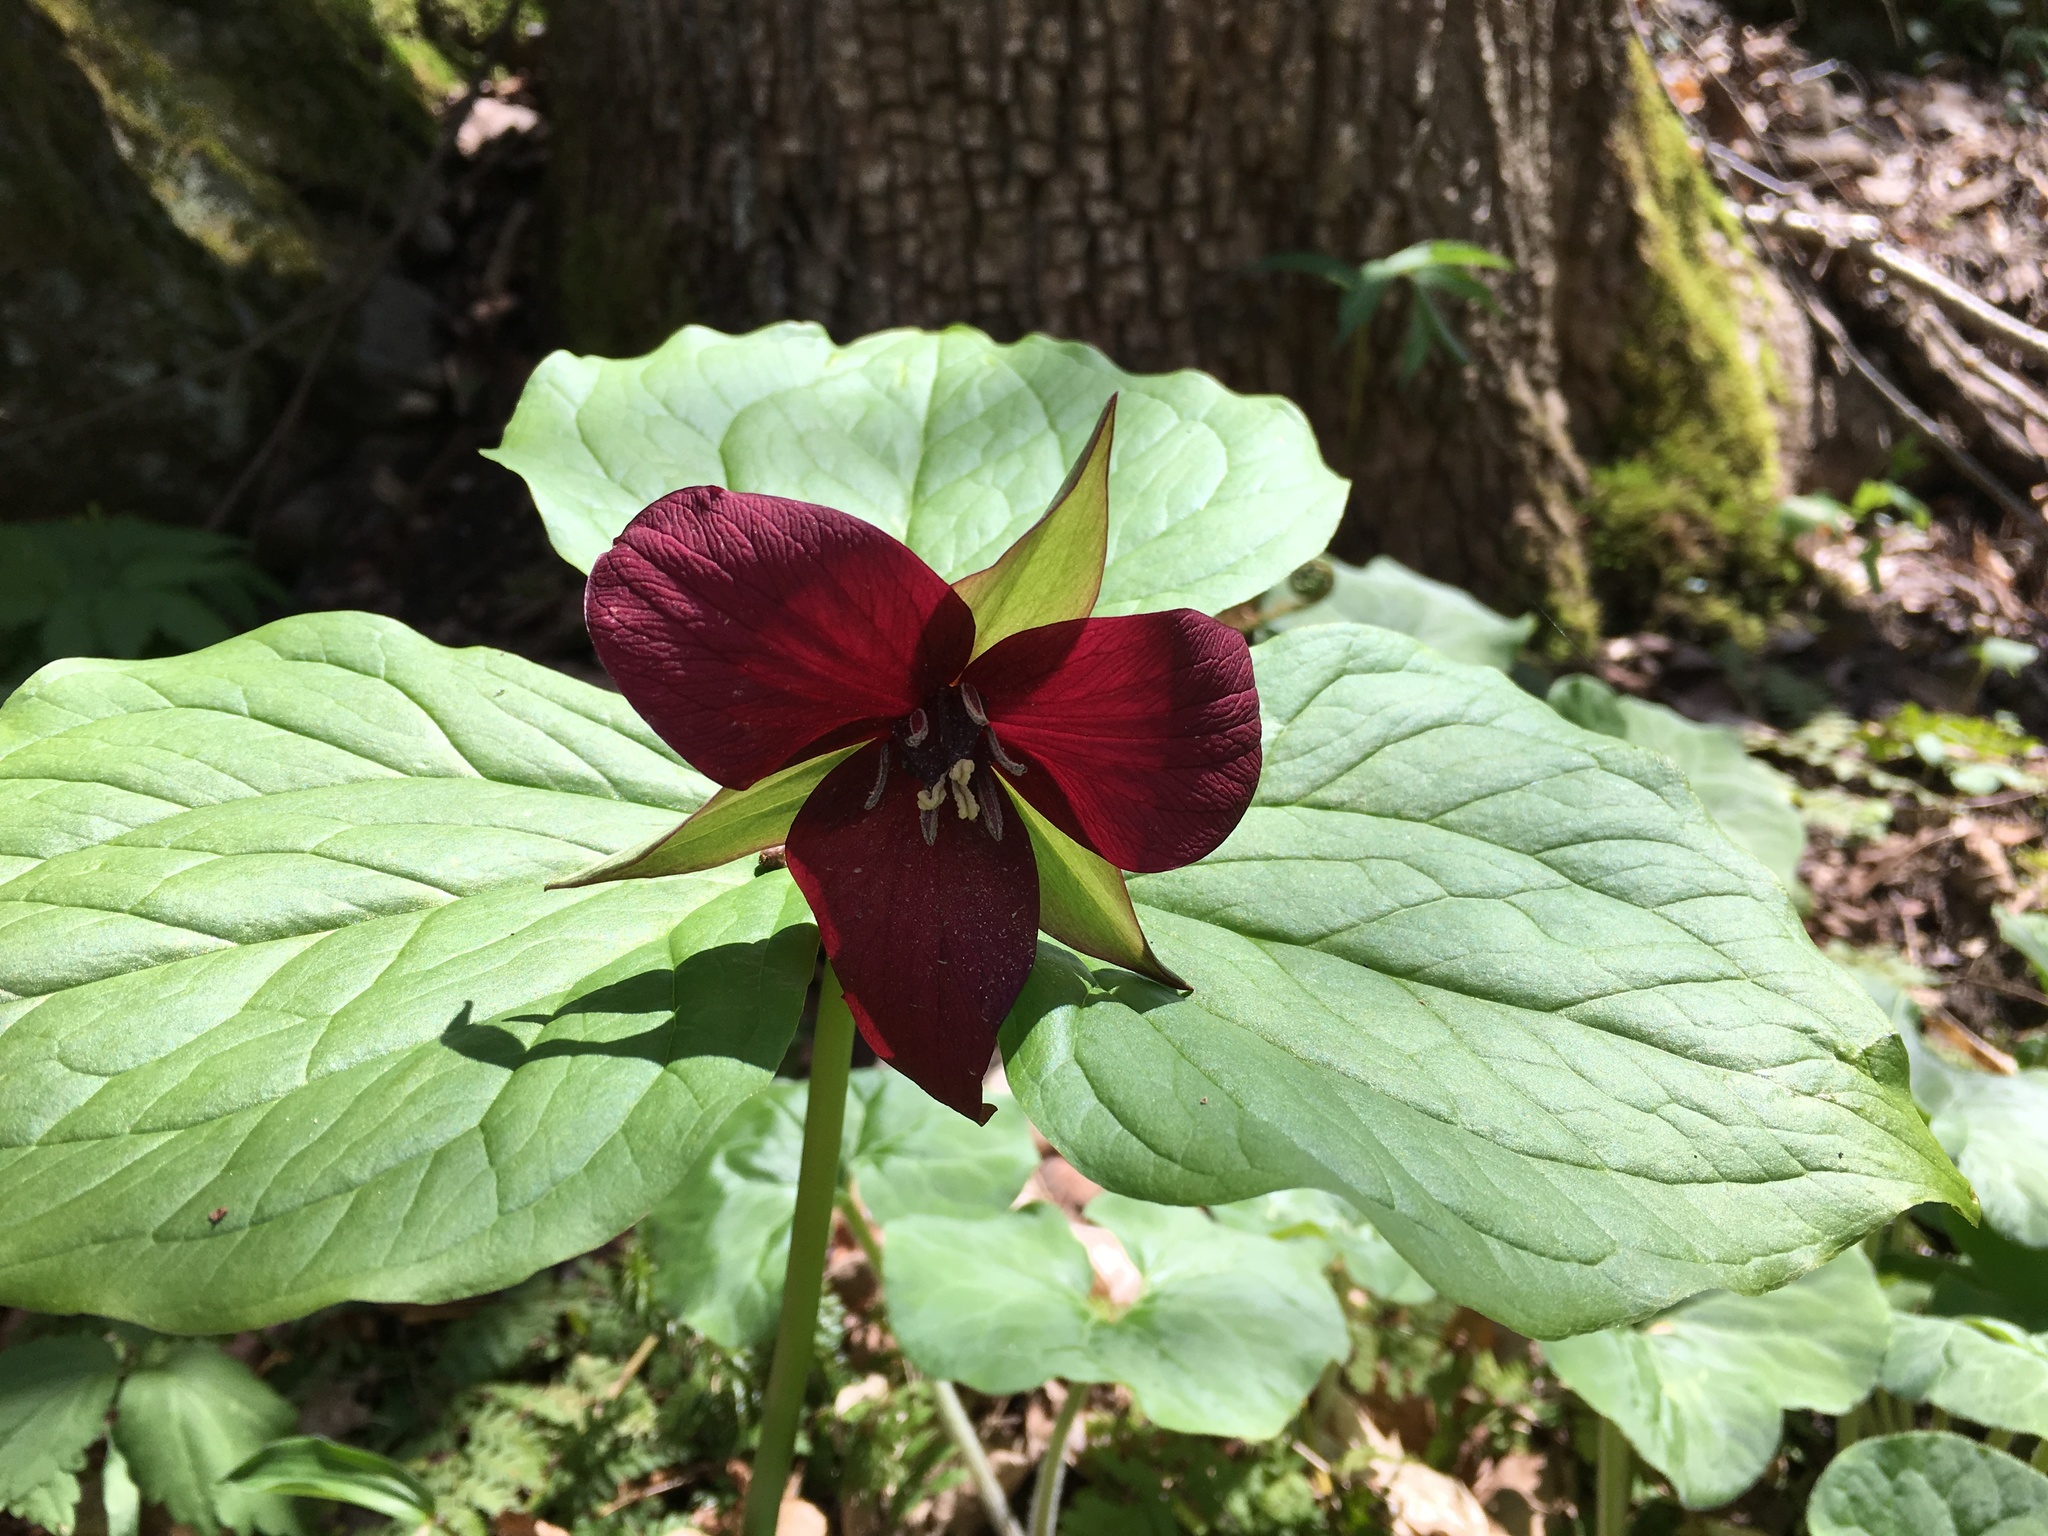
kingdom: Plantae
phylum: Tracheophyta
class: Liliopsida
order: Liliales
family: Melanthiaceae
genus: Trillium
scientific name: Trillium erectum
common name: Purple trillium
